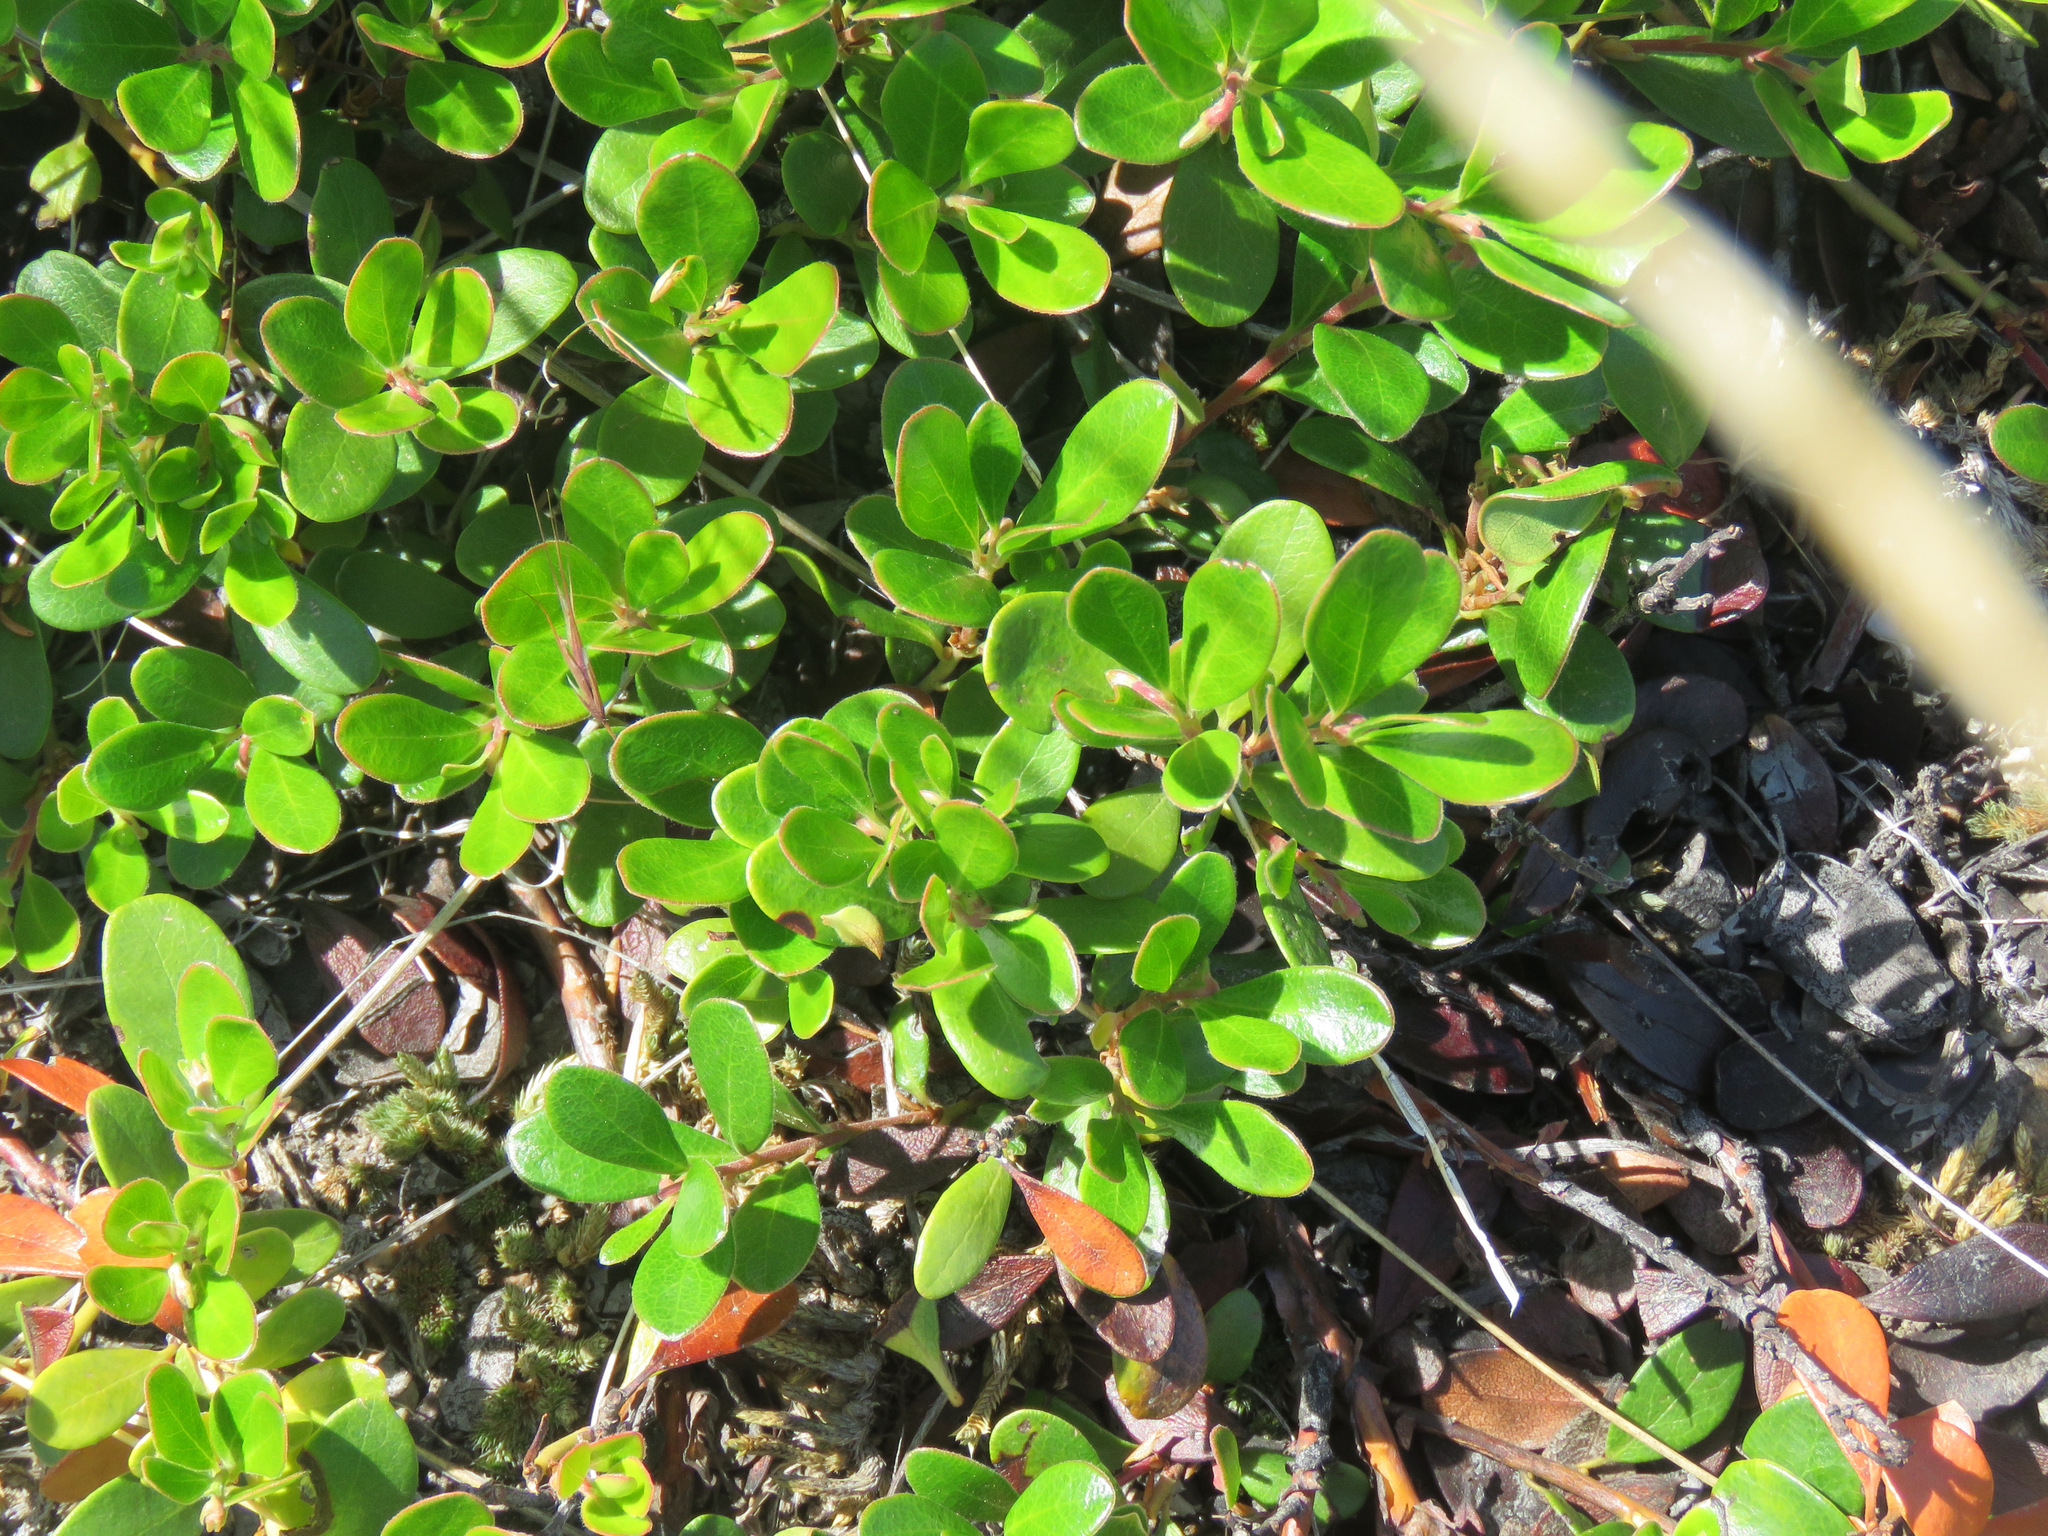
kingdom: Plantae
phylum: Tracheophyta
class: Magnoliopsida
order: Ericales
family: Ericaceae
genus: Arctostaphylos
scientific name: Arctostaphylos uva-ursi
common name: Bearberry
